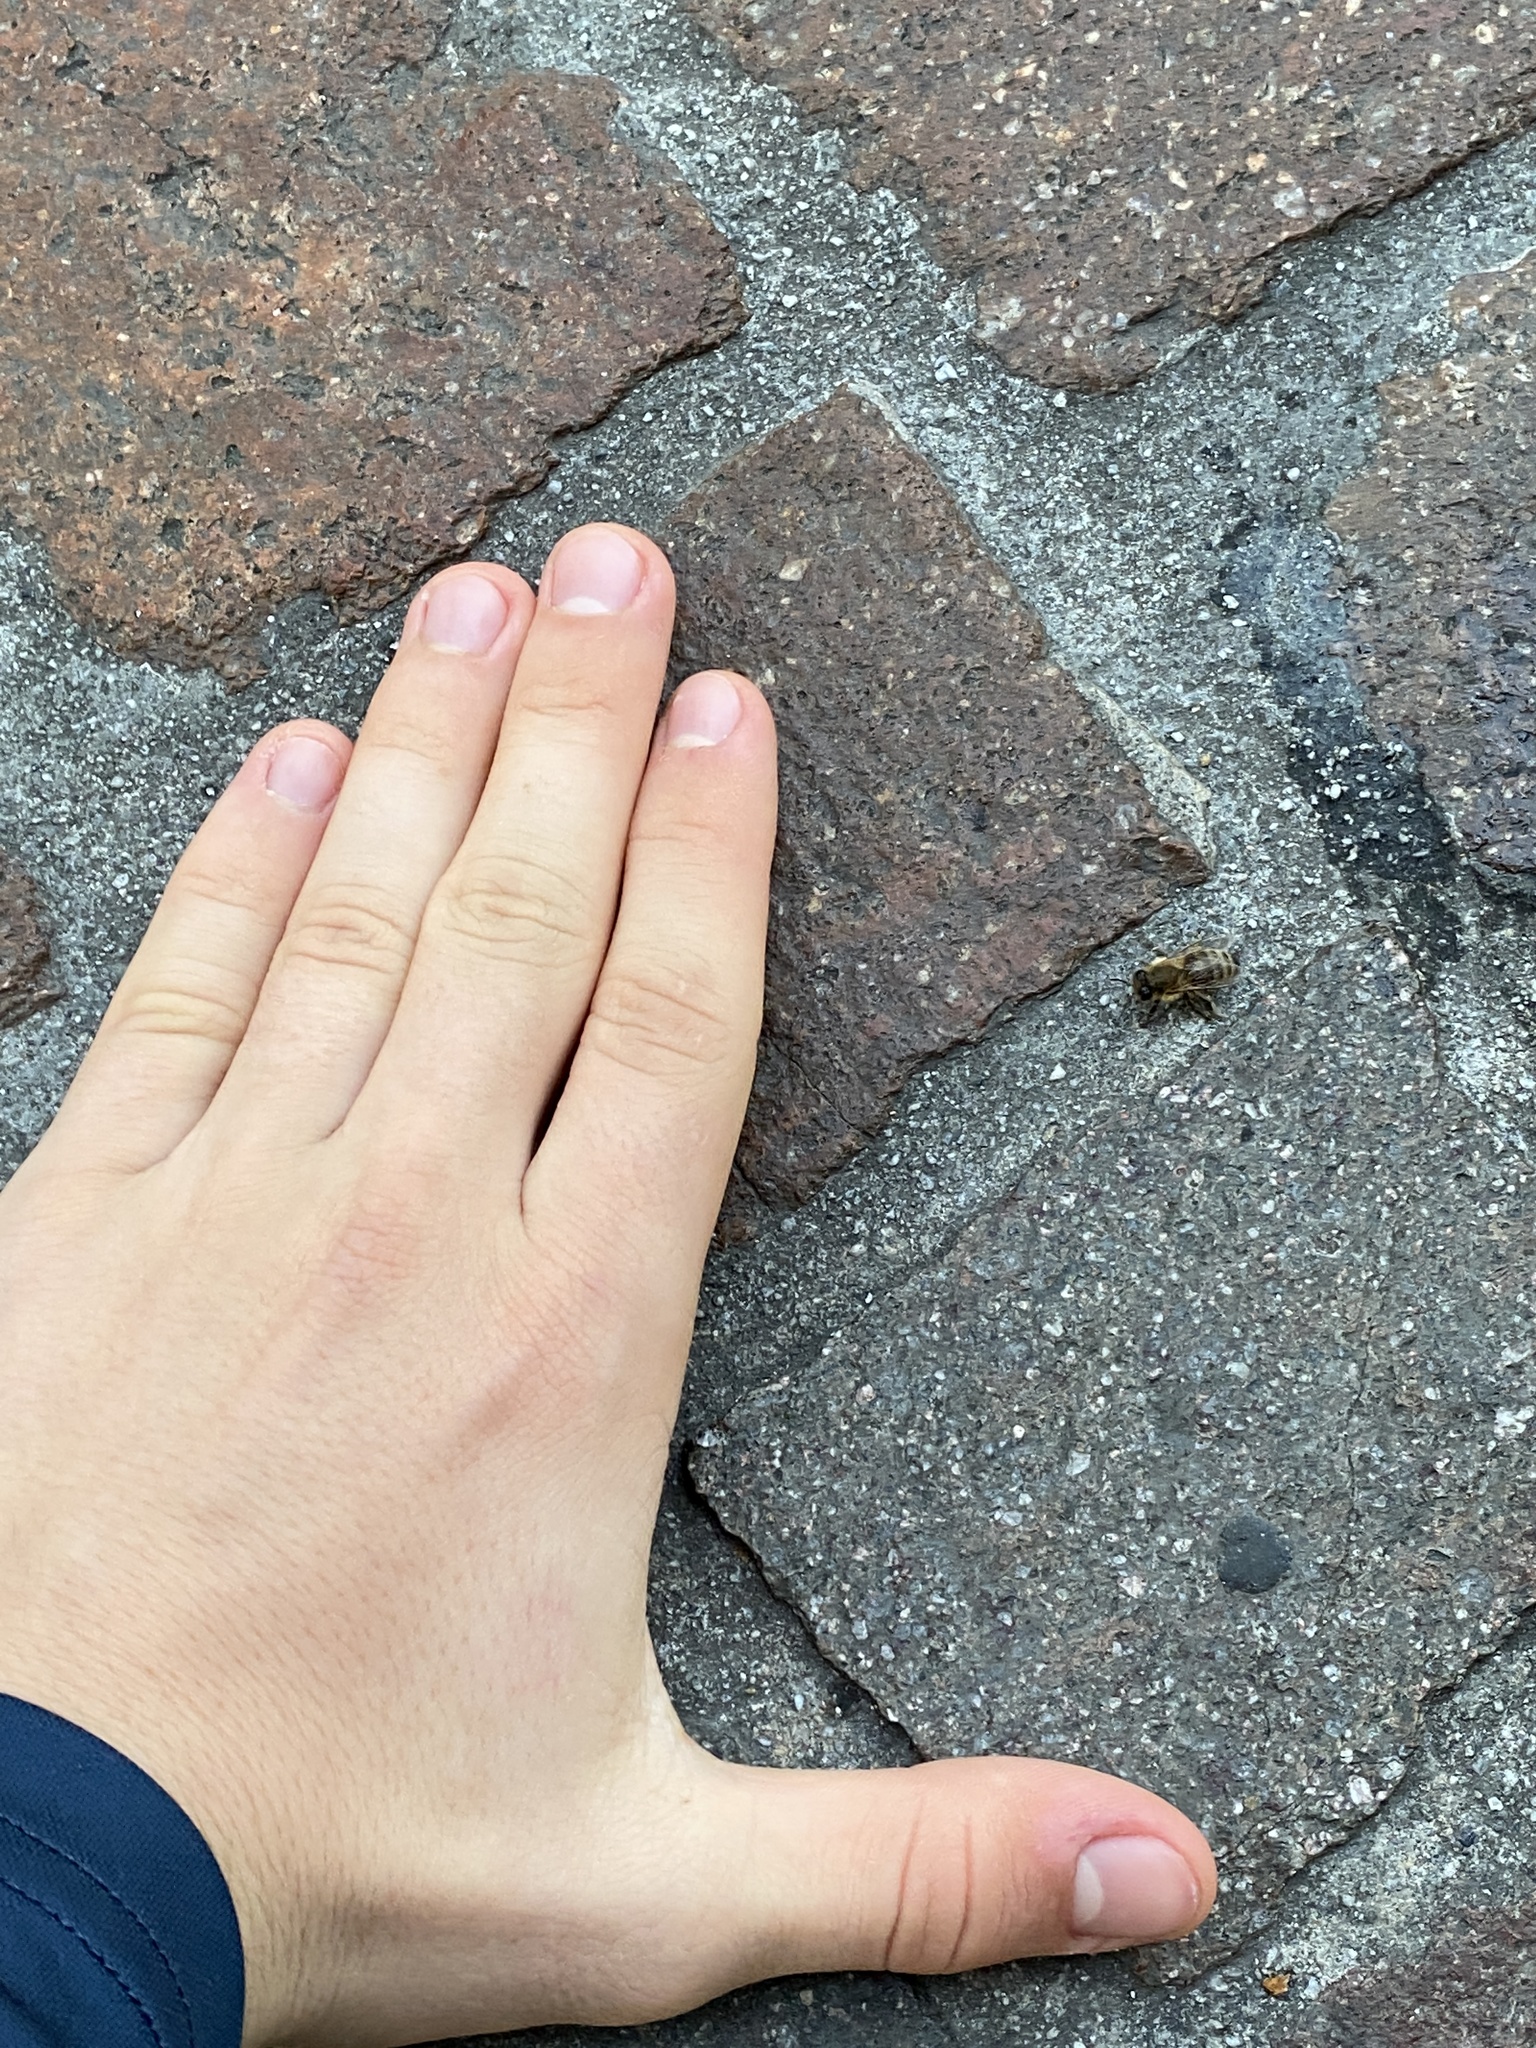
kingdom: Animalia
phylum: Arthropoda
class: Insecta
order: Hymenoptera
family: Apidae
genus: Apis
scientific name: Apis mellifera
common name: Honey bee
